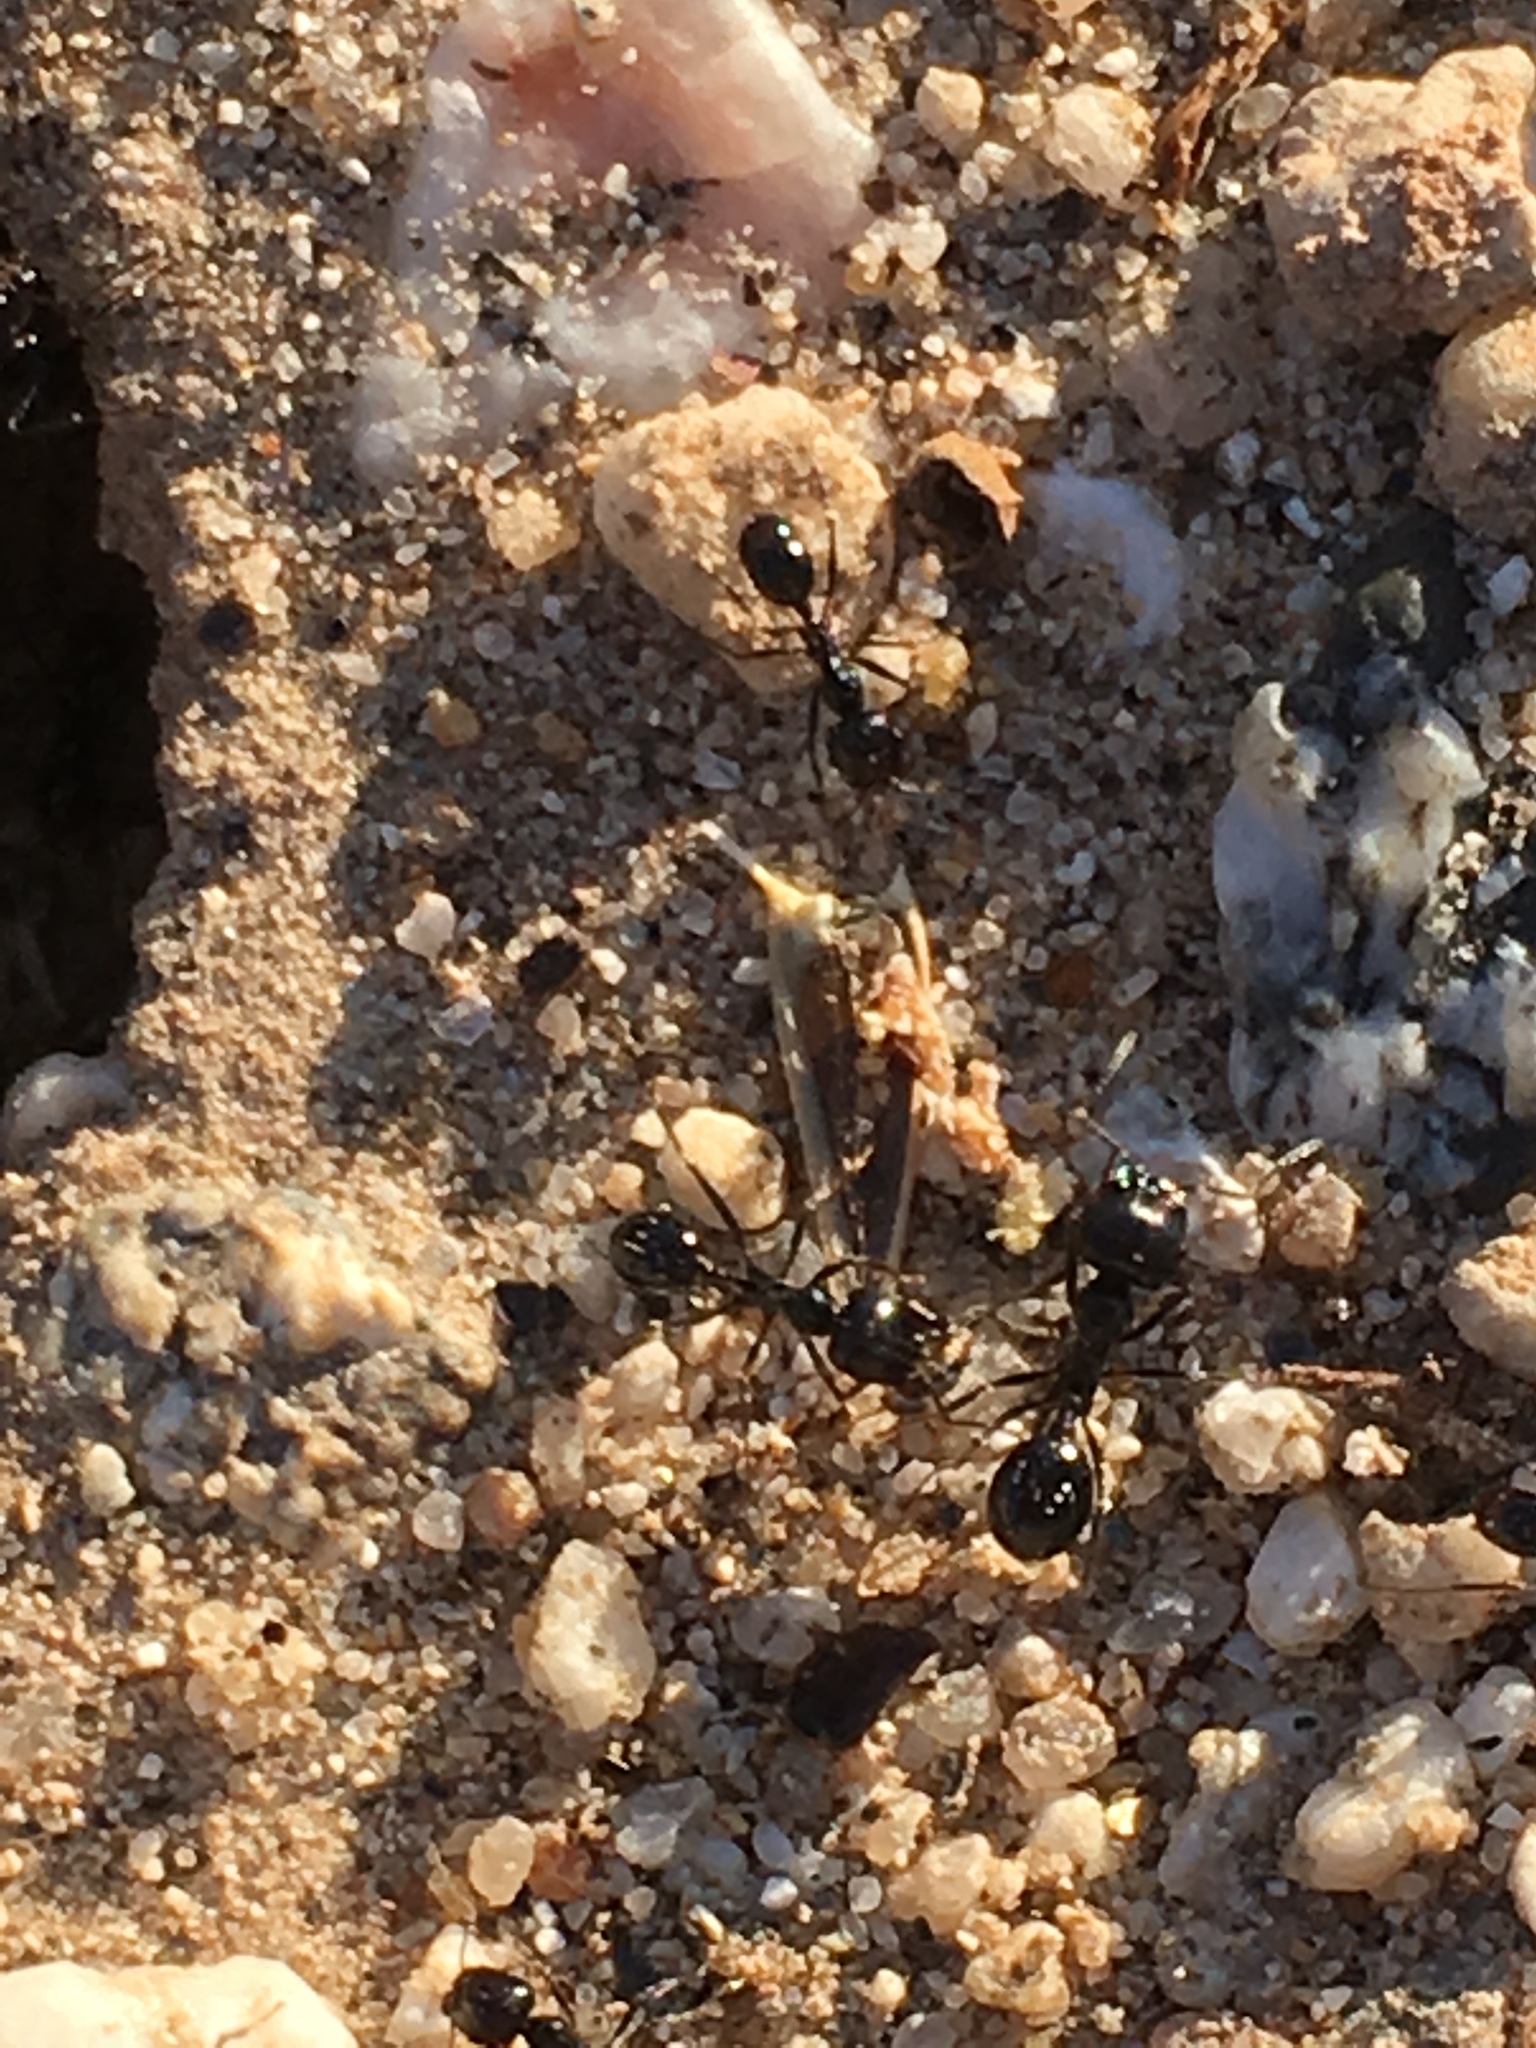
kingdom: Animalia
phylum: Arthropoda
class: Insecta
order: Hymenoptera
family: Formicidae
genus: Messor
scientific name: Messor pergandei
